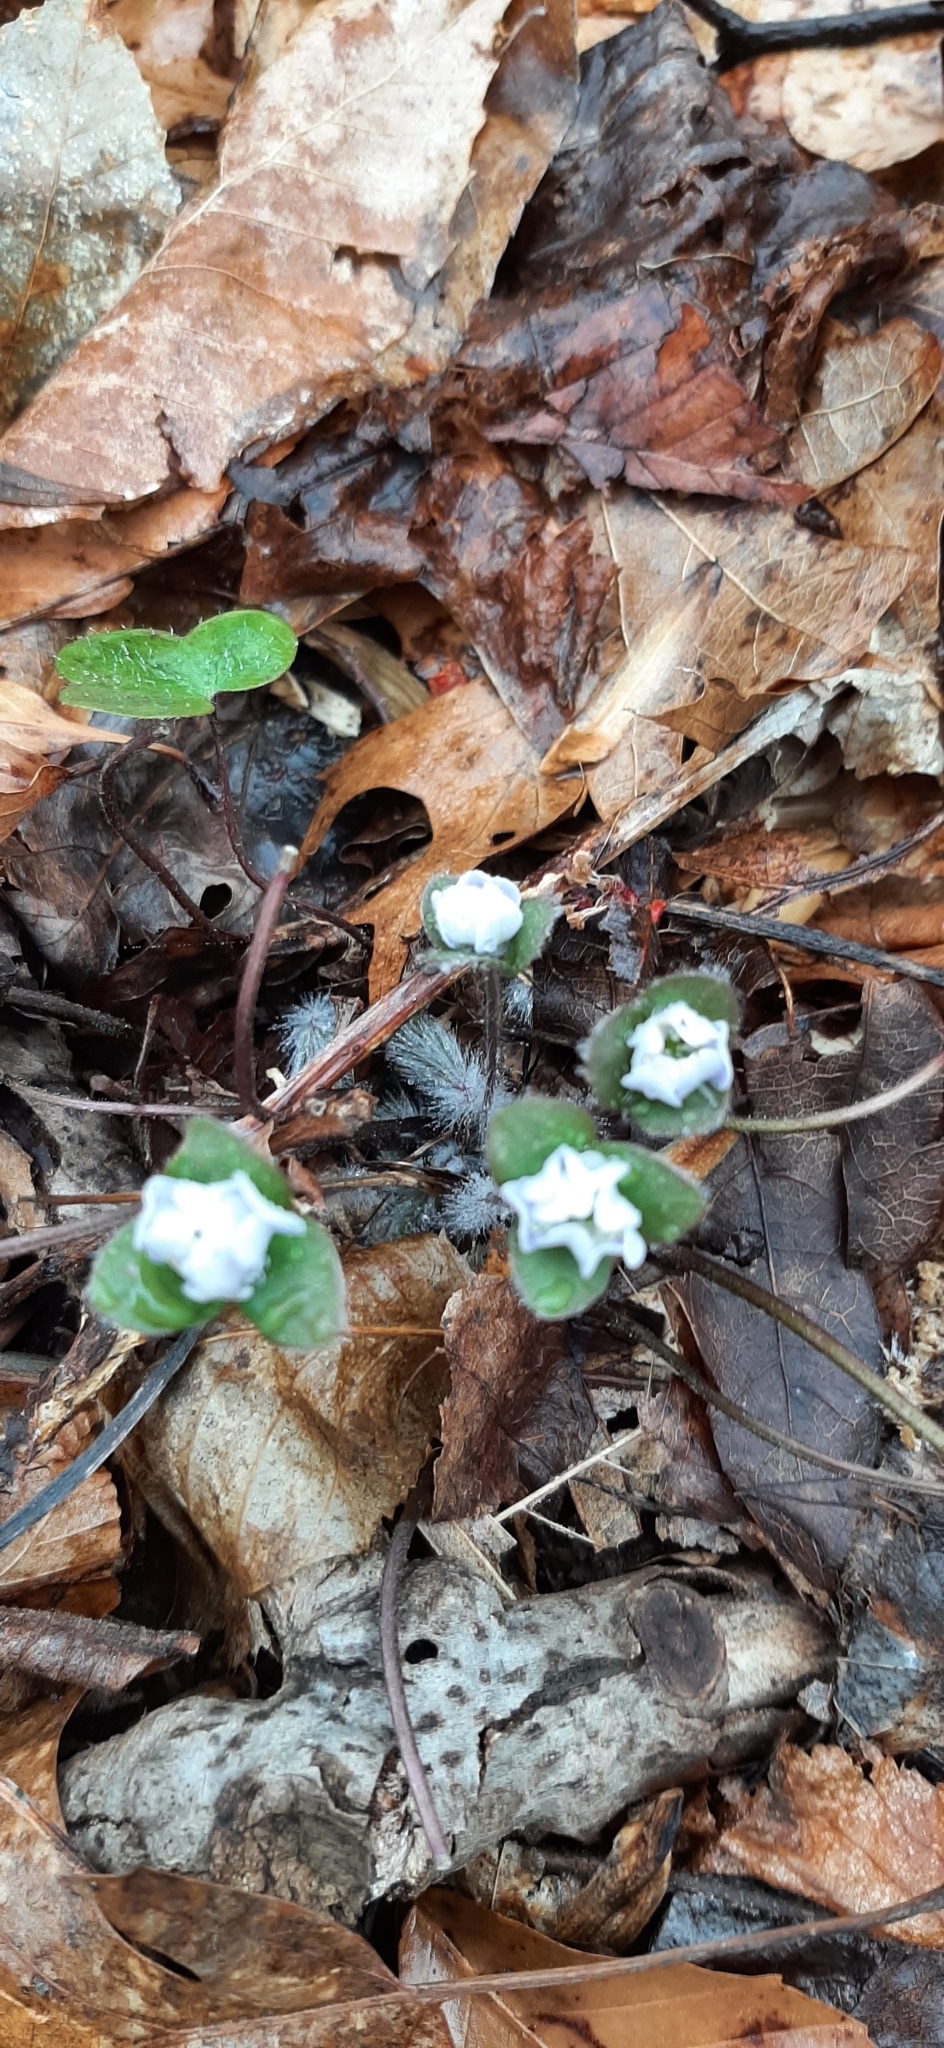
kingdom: Plantae
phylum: Tracheophyta
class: Magnoliopsida
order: Ranunculales
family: Ranunculaceae
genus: Hepatica
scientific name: Hepatica americana
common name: American hepatica
